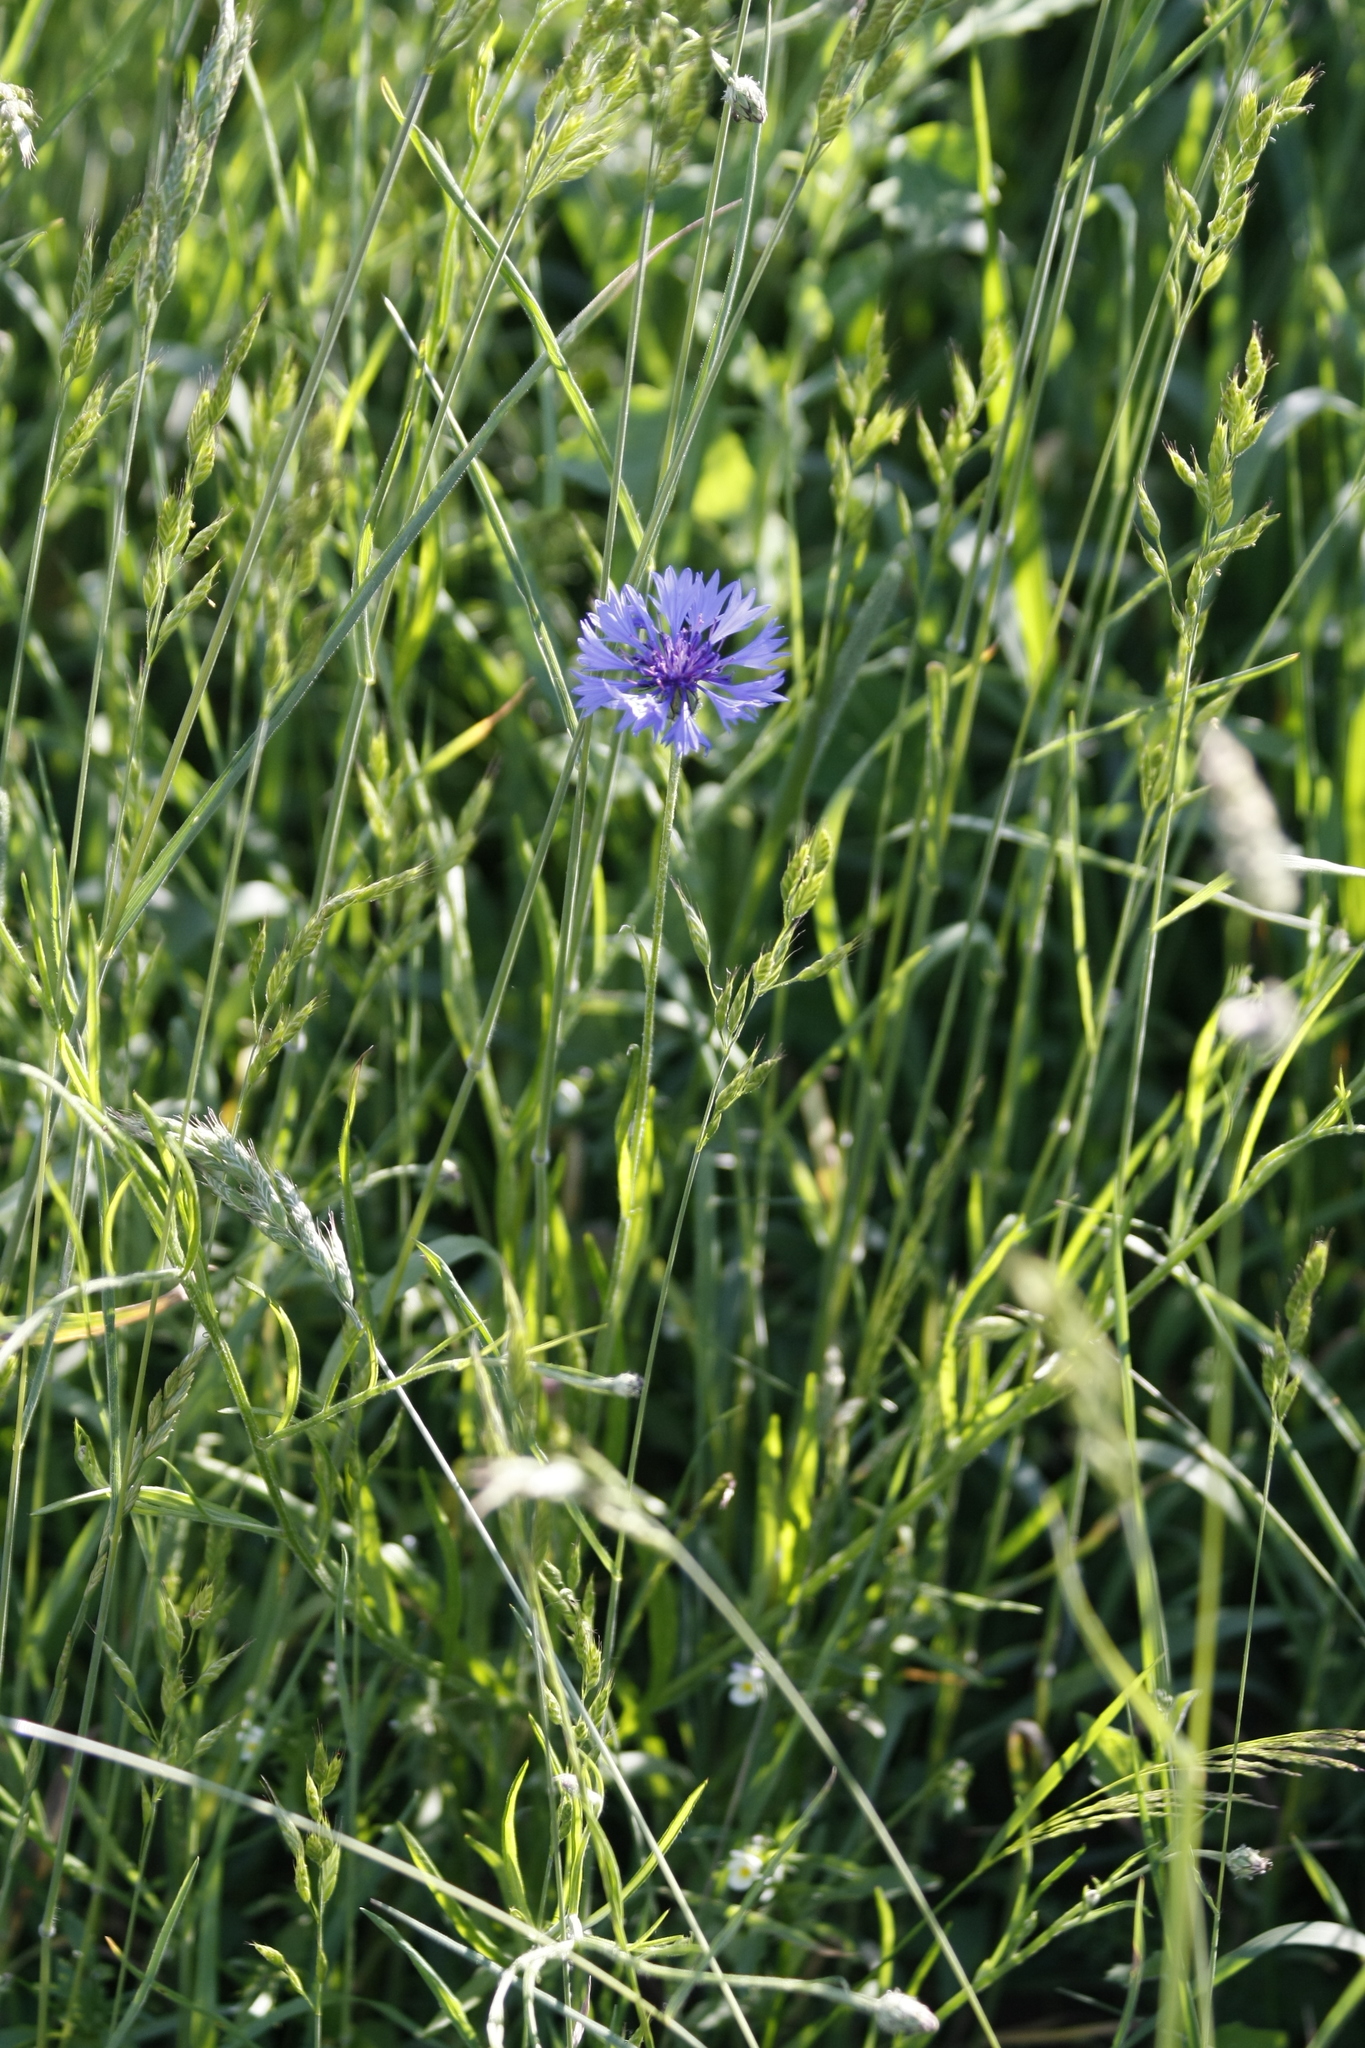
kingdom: Plantae
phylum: Tracheophyta
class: Magnoliopsida
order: Asterales
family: Asteraceae
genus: Centaurea
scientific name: Centaurea cyanus
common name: Cornflower
